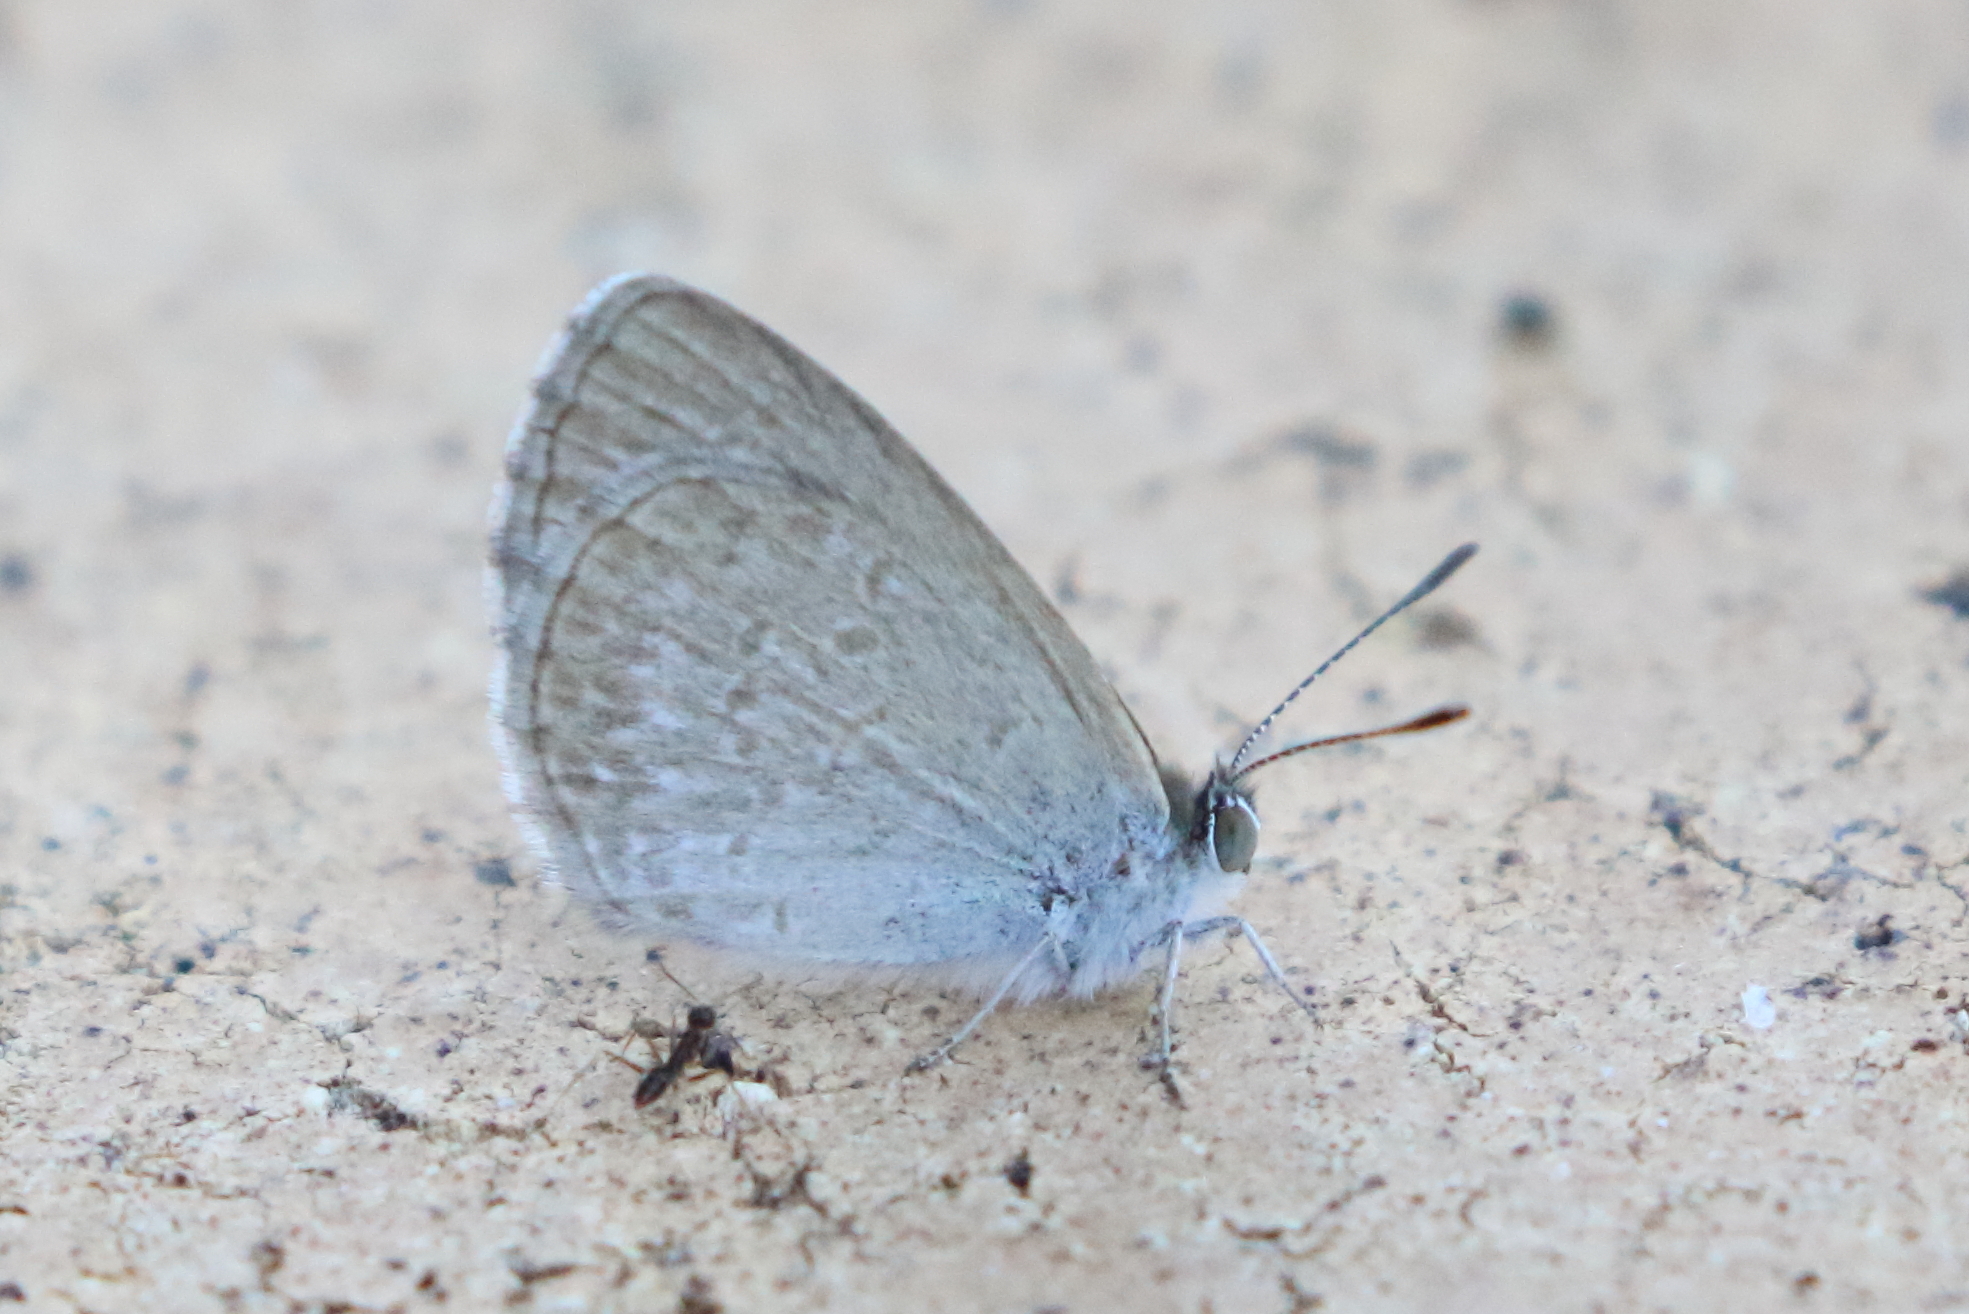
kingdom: Animalia
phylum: Arthropoda
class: Insecta
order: Lepidoptera
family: Lycaenidae
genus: Zizina
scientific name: Zizina labradus
